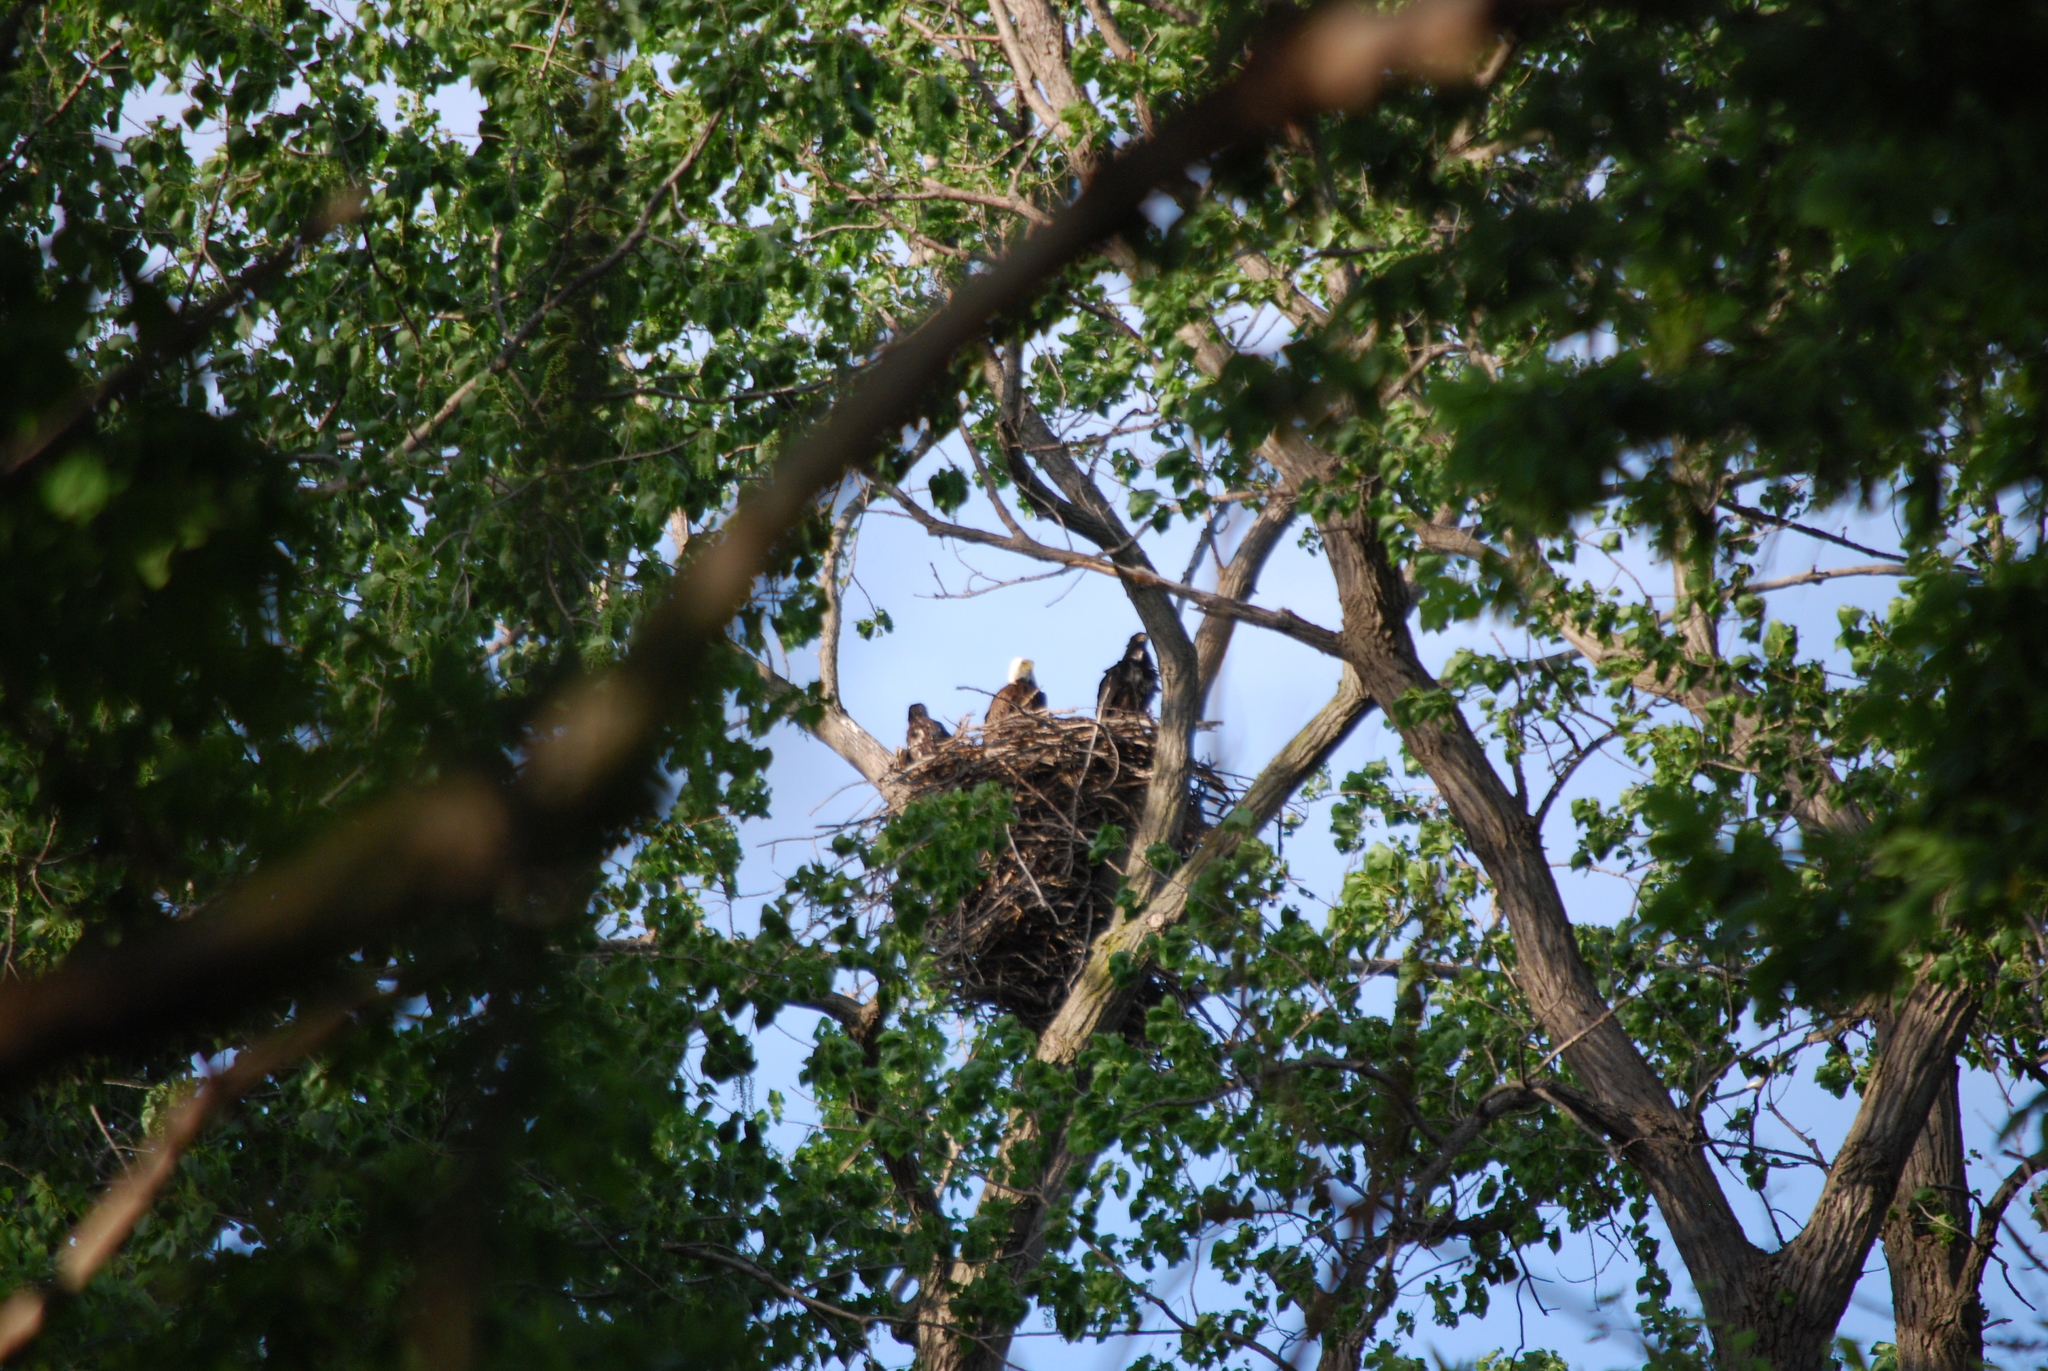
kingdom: Animalia
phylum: Chordata
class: Aves
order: Accipitriformes
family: Accipitridae
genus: Haliaeetus
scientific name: Haliaeetus leucocephalus
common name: Bald eagle
